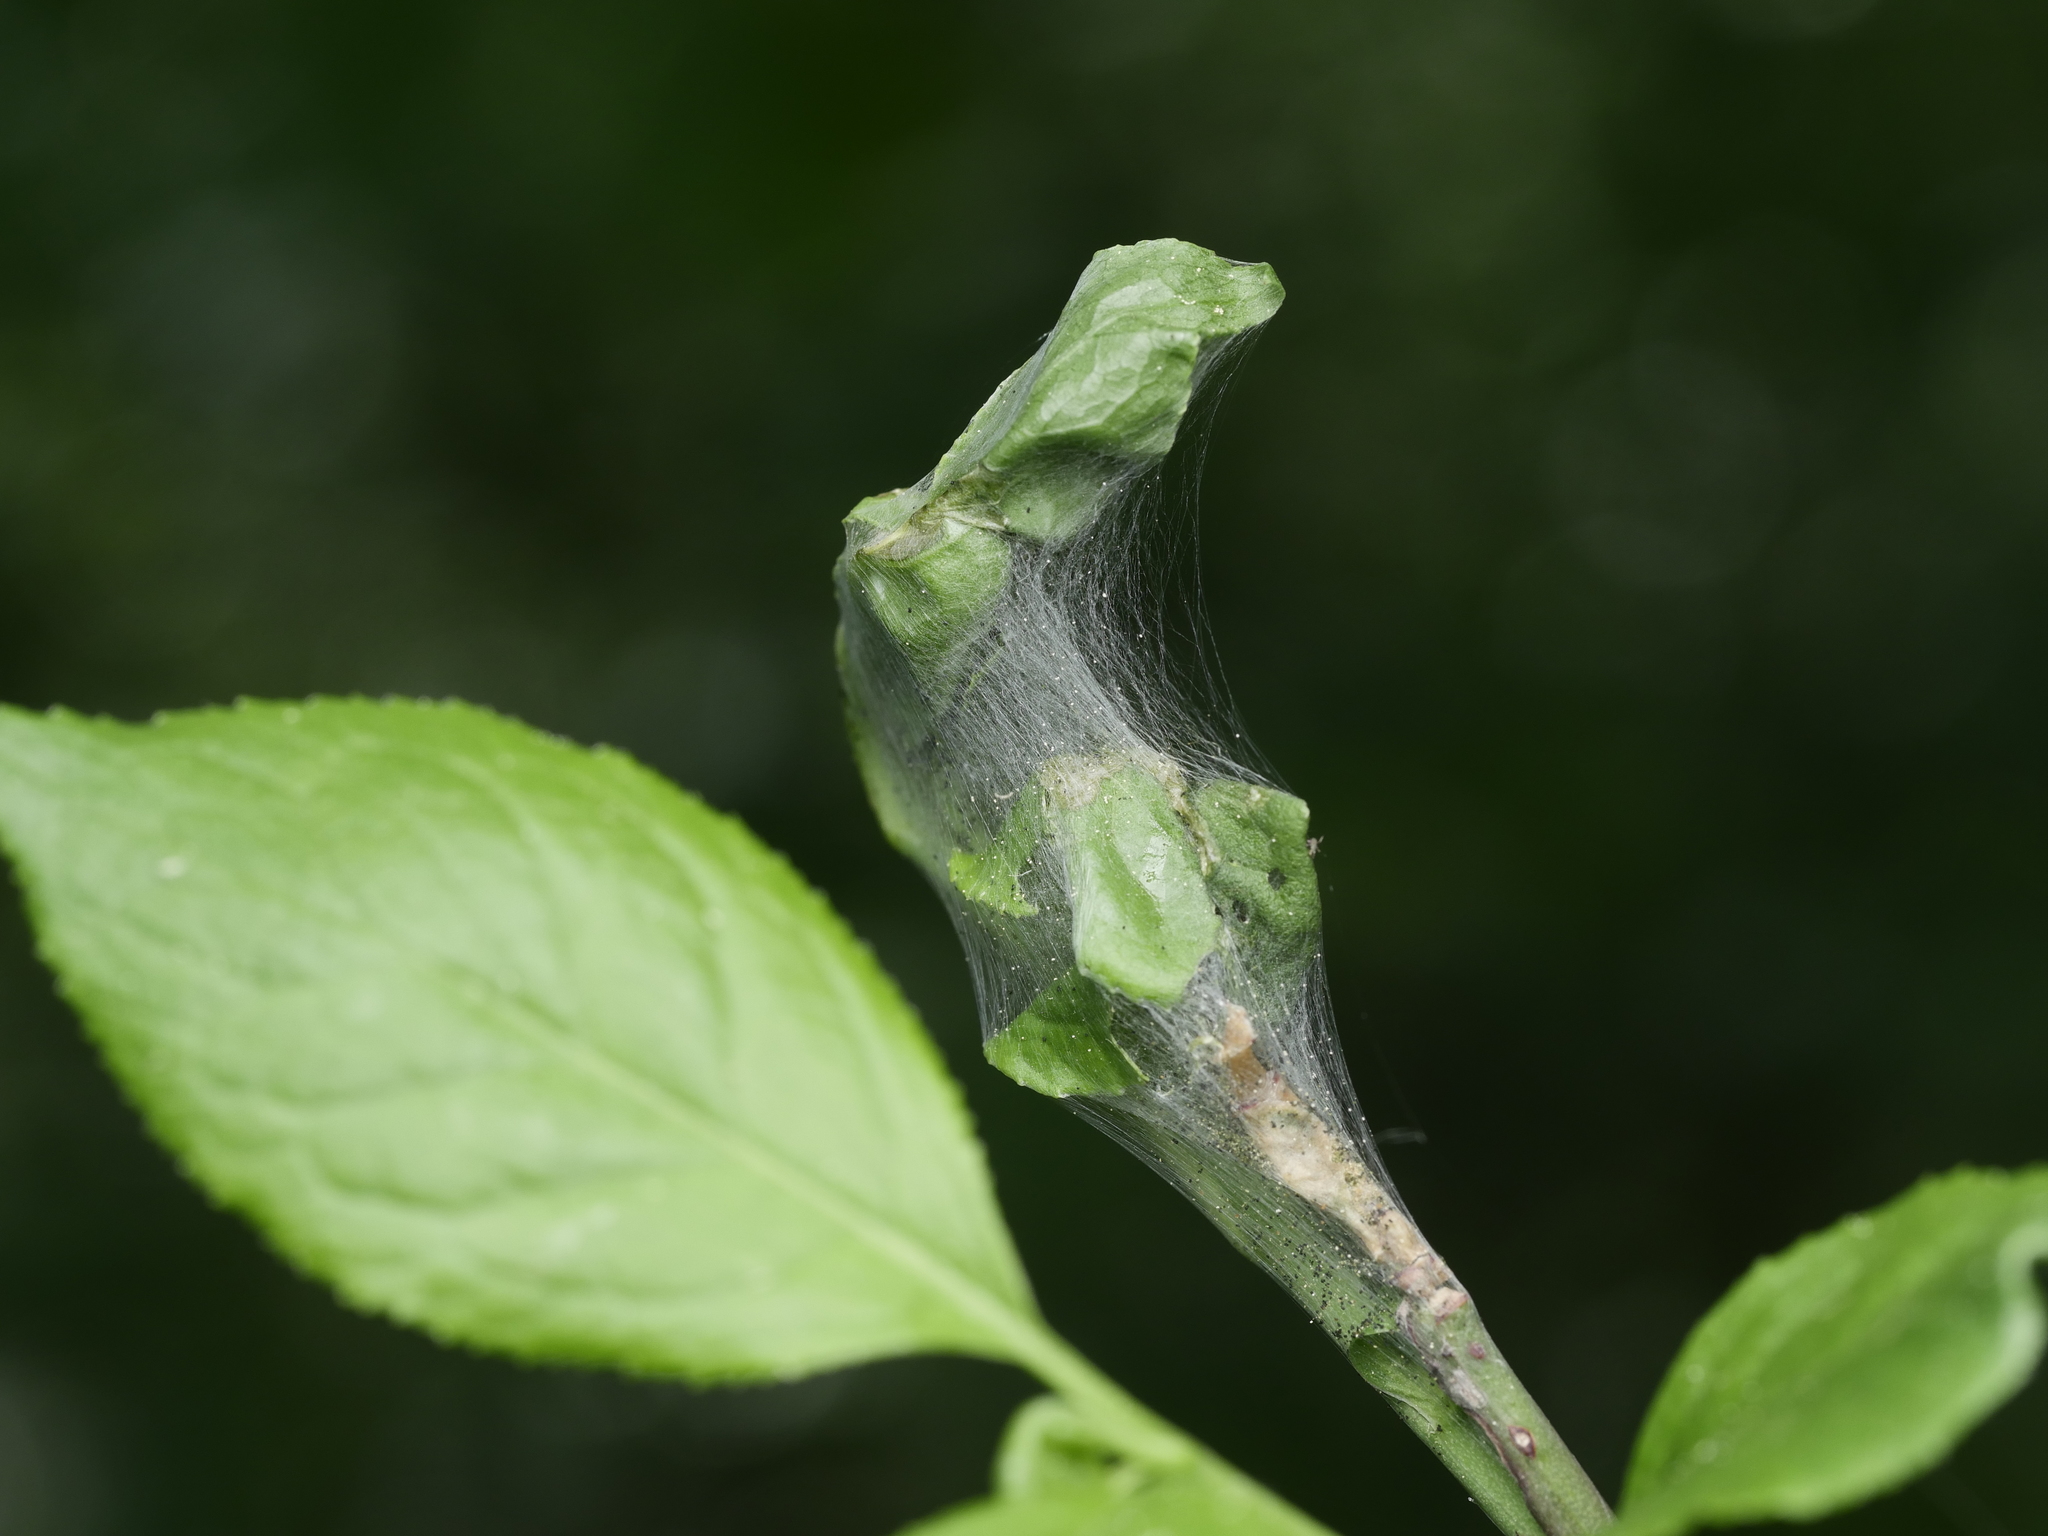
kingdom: Animalia
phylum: Arthropoda
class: Insecta
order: Lepidoptera
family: Yponomeutidae
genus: Yponomeuta
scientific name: Yponomeuta cagnagellus
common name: Spindle ermine
